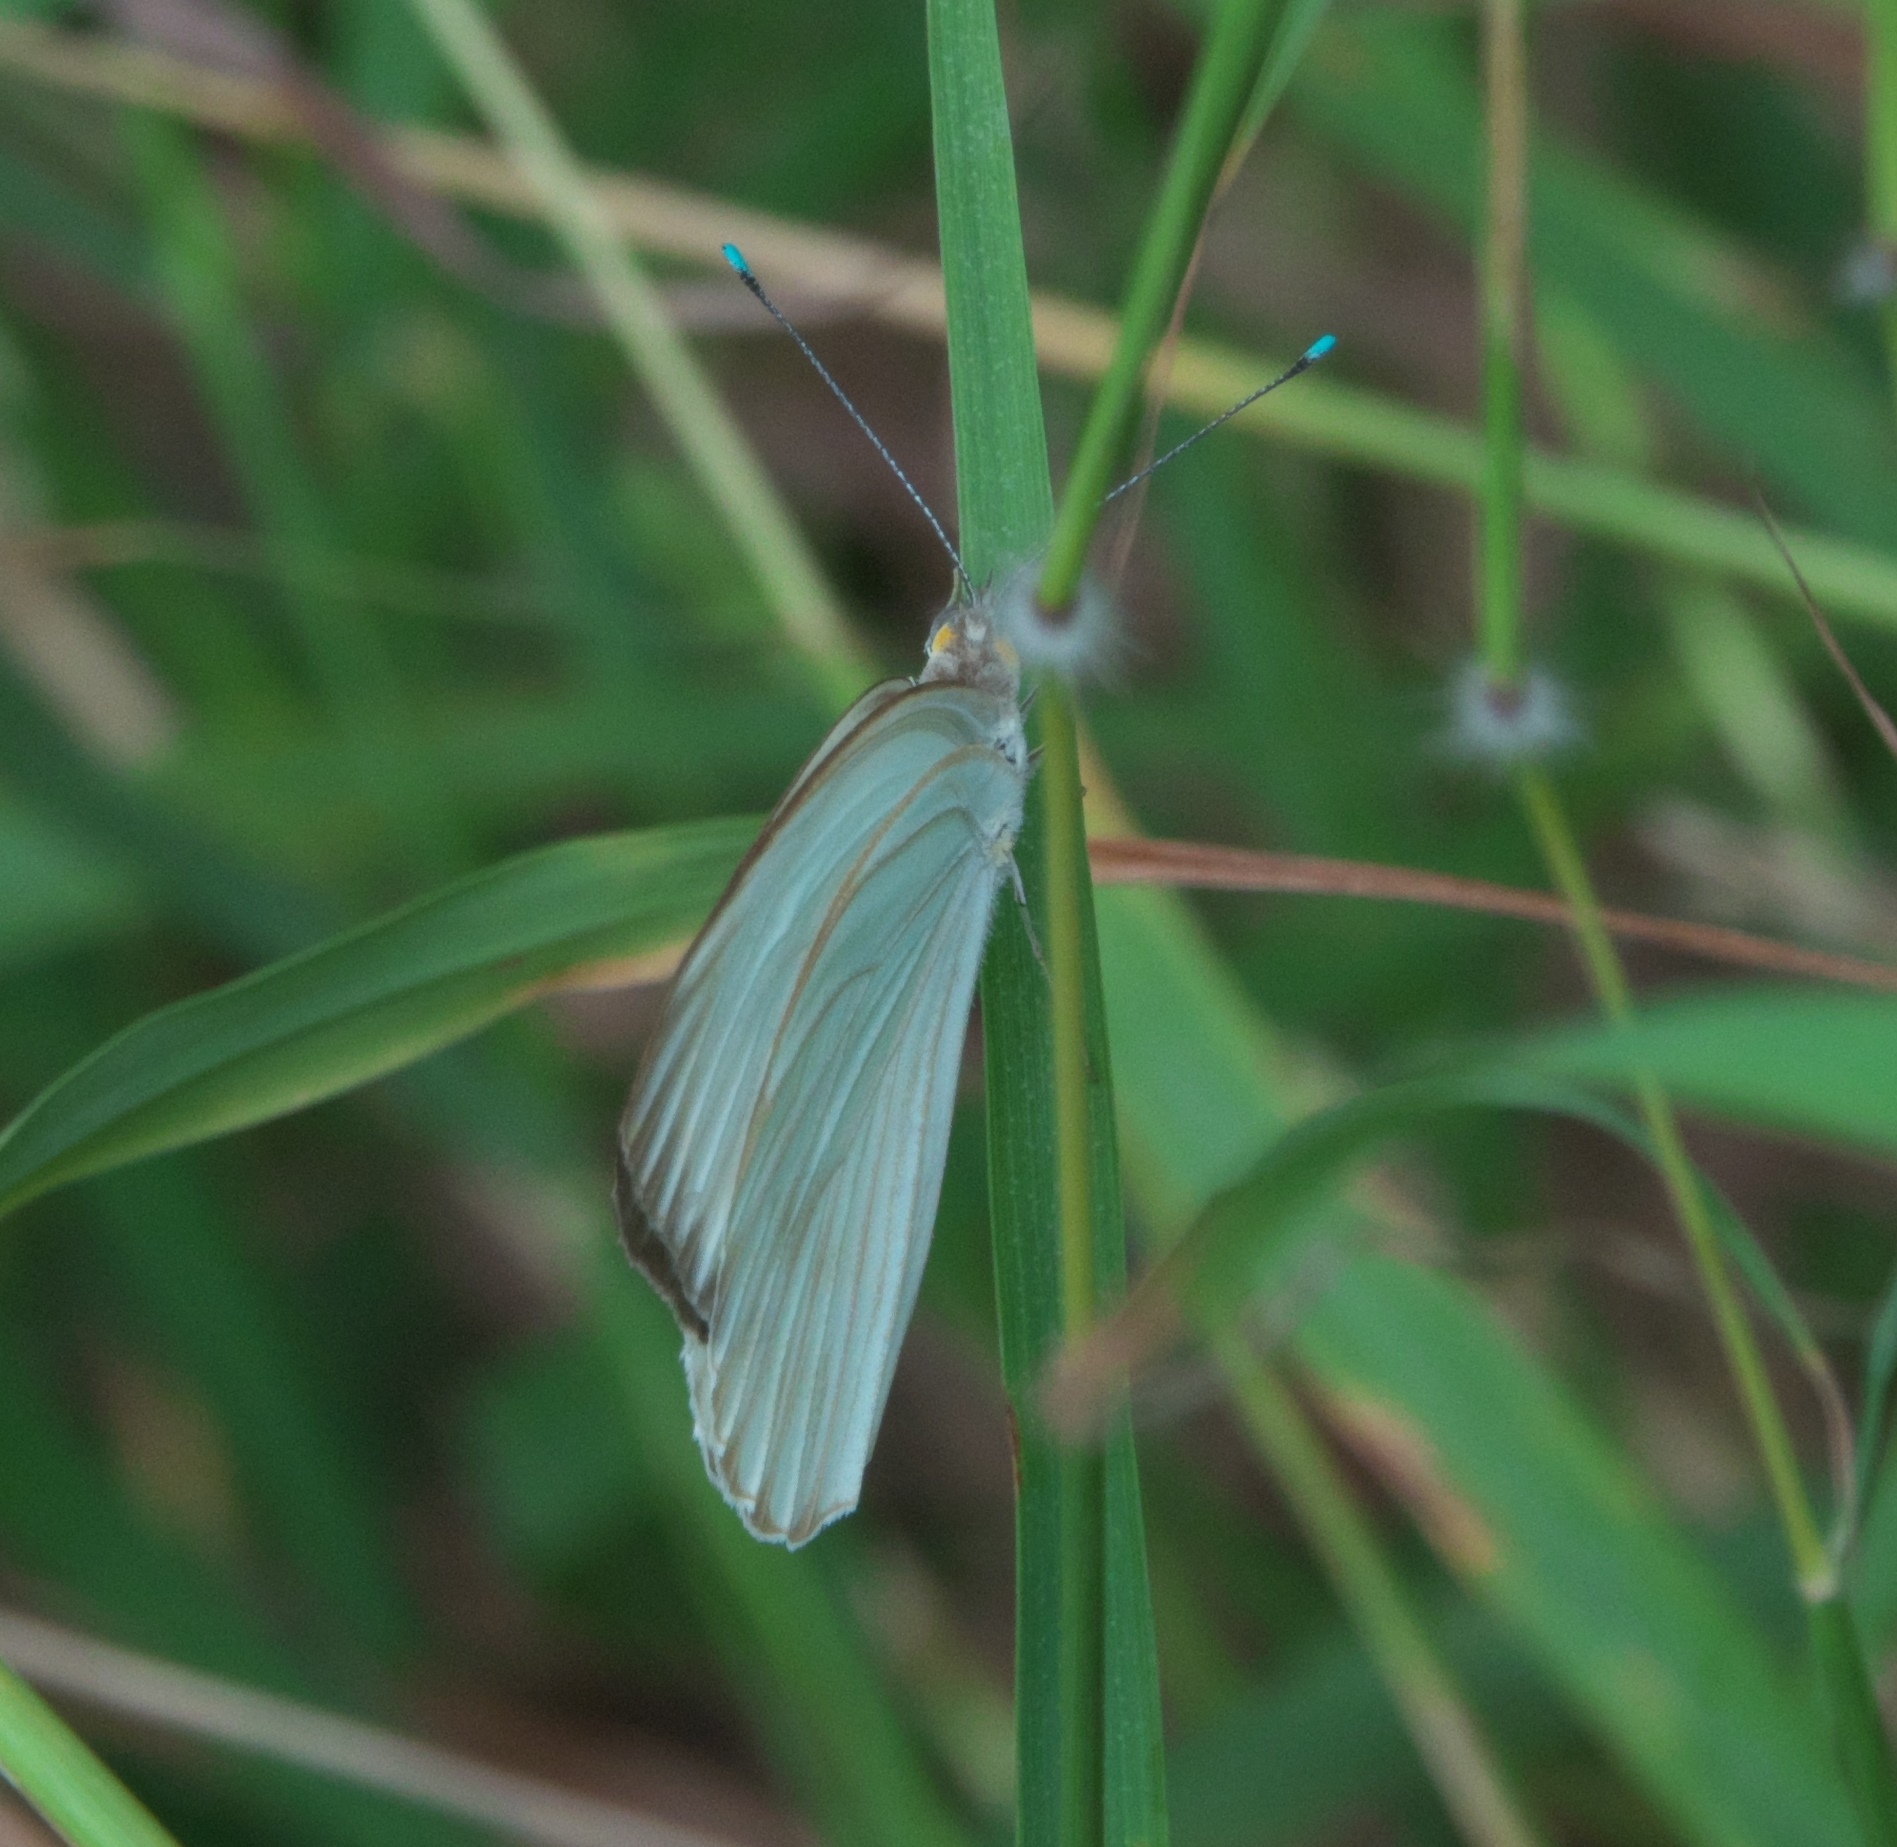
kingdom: Animalia
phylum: Arthropoda
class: Insecta
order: Lepidoptera
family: Pieridae
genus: Ascia
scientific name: Ascia monuste
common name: Great southern white
